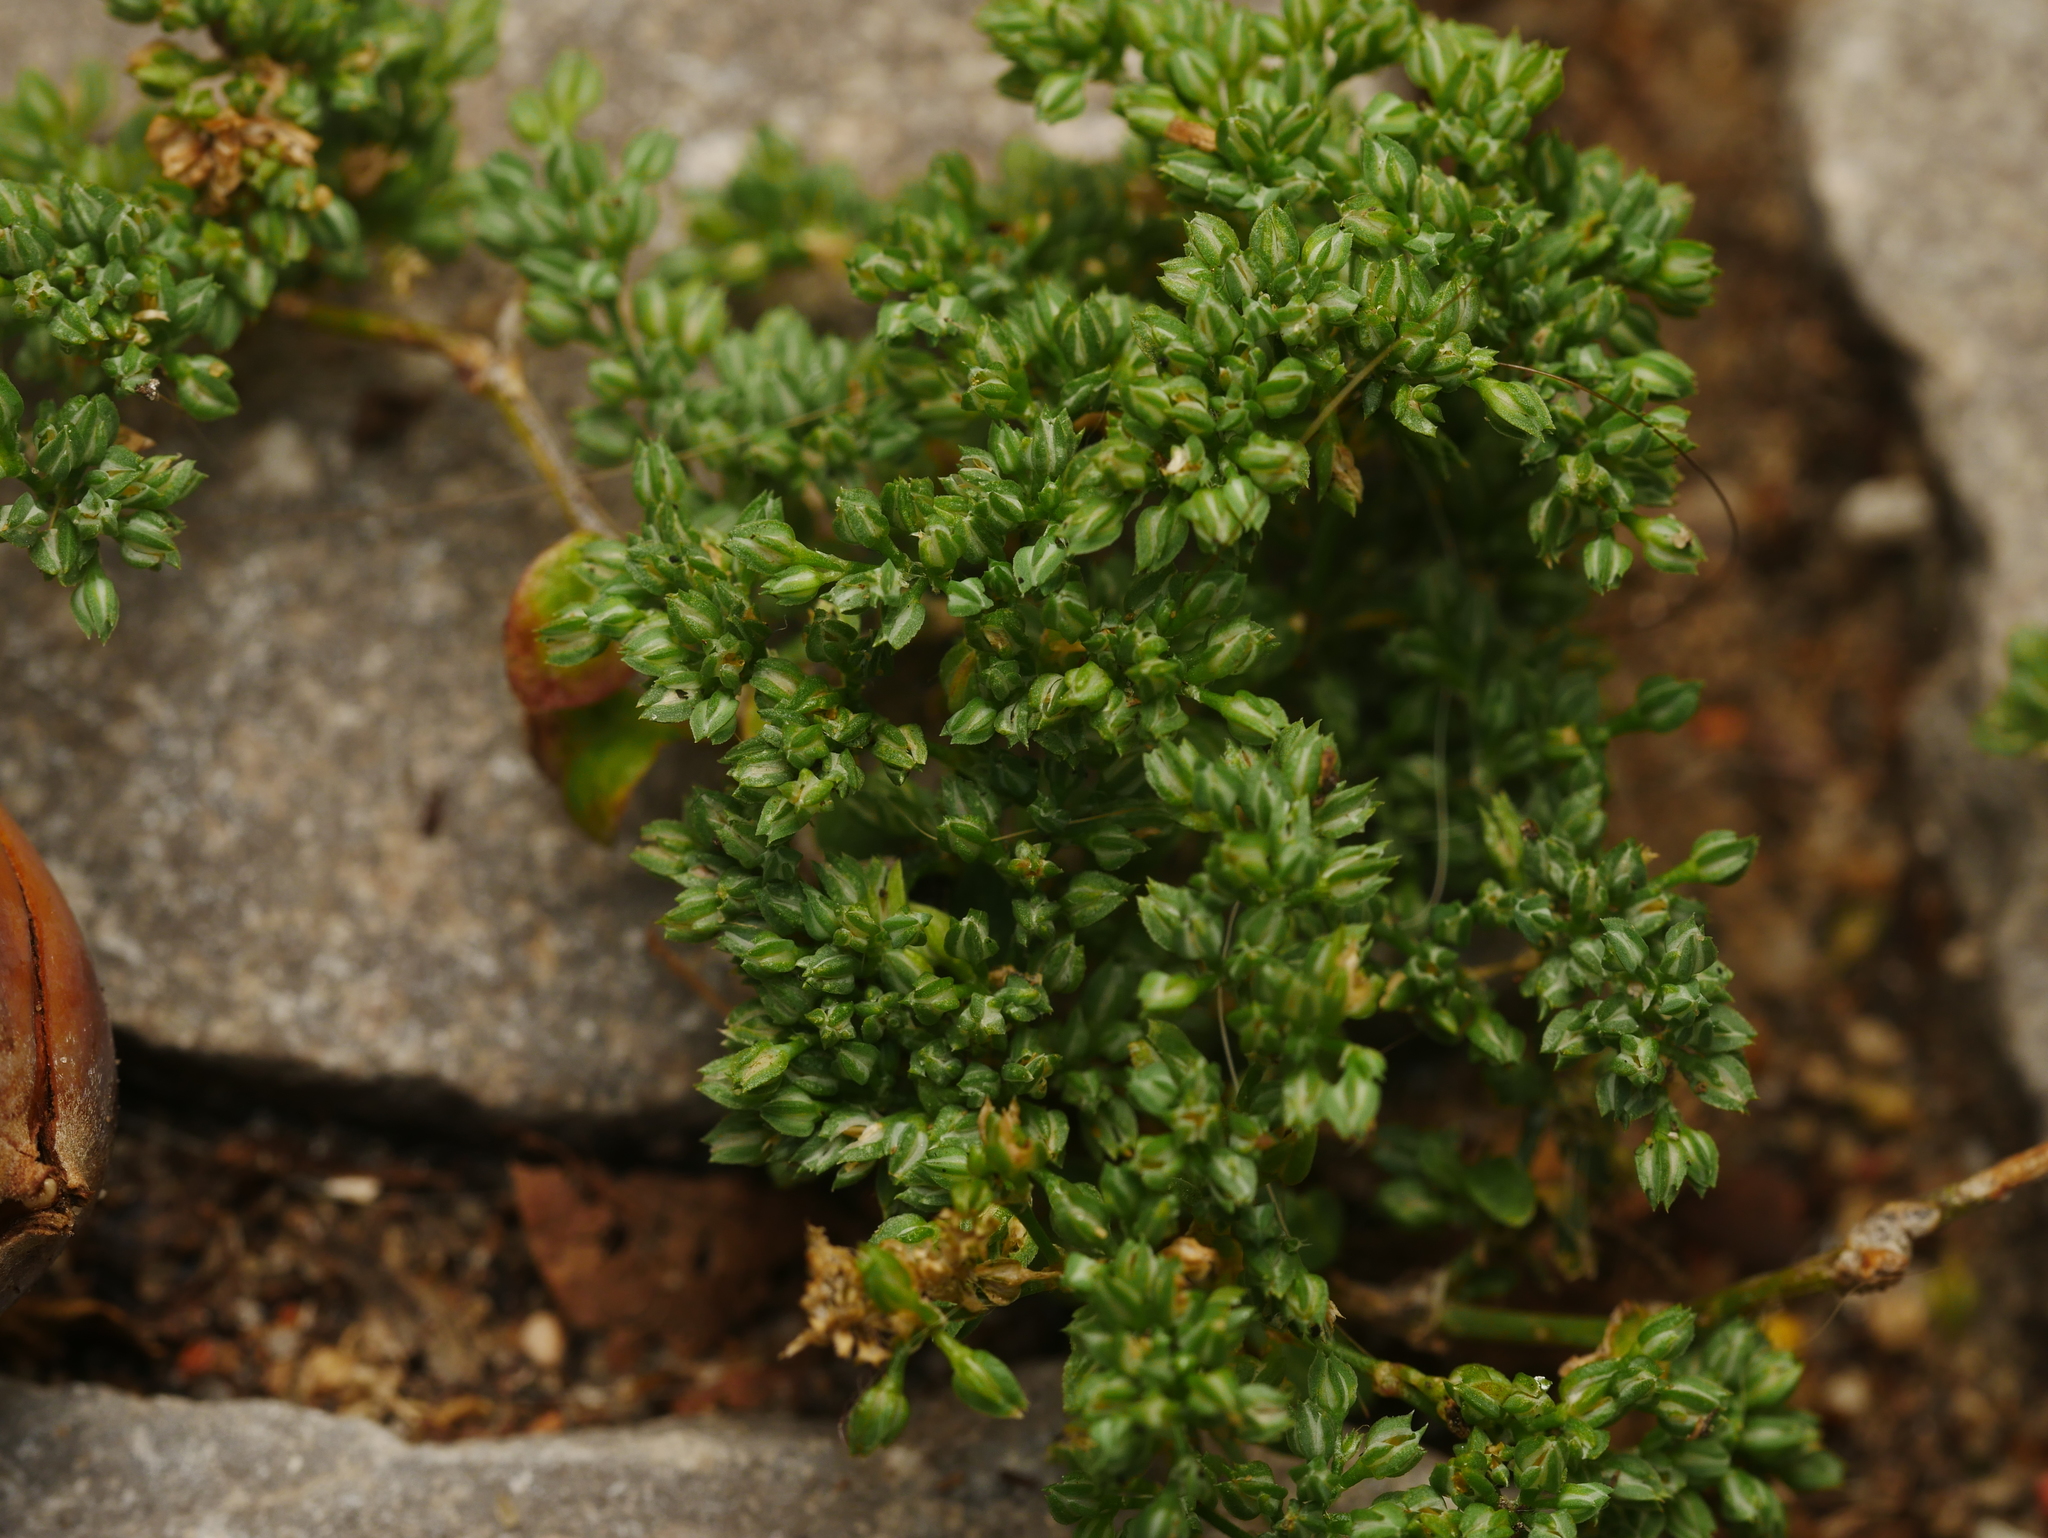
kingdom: Plantae
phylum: Tracheophyta
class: Magnoliopsida
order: Caryophyllales
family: Caryophyllaceae
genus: Polycarpon
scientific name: Polycarpon tetraphyllum
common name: Four-leaved all-seed
